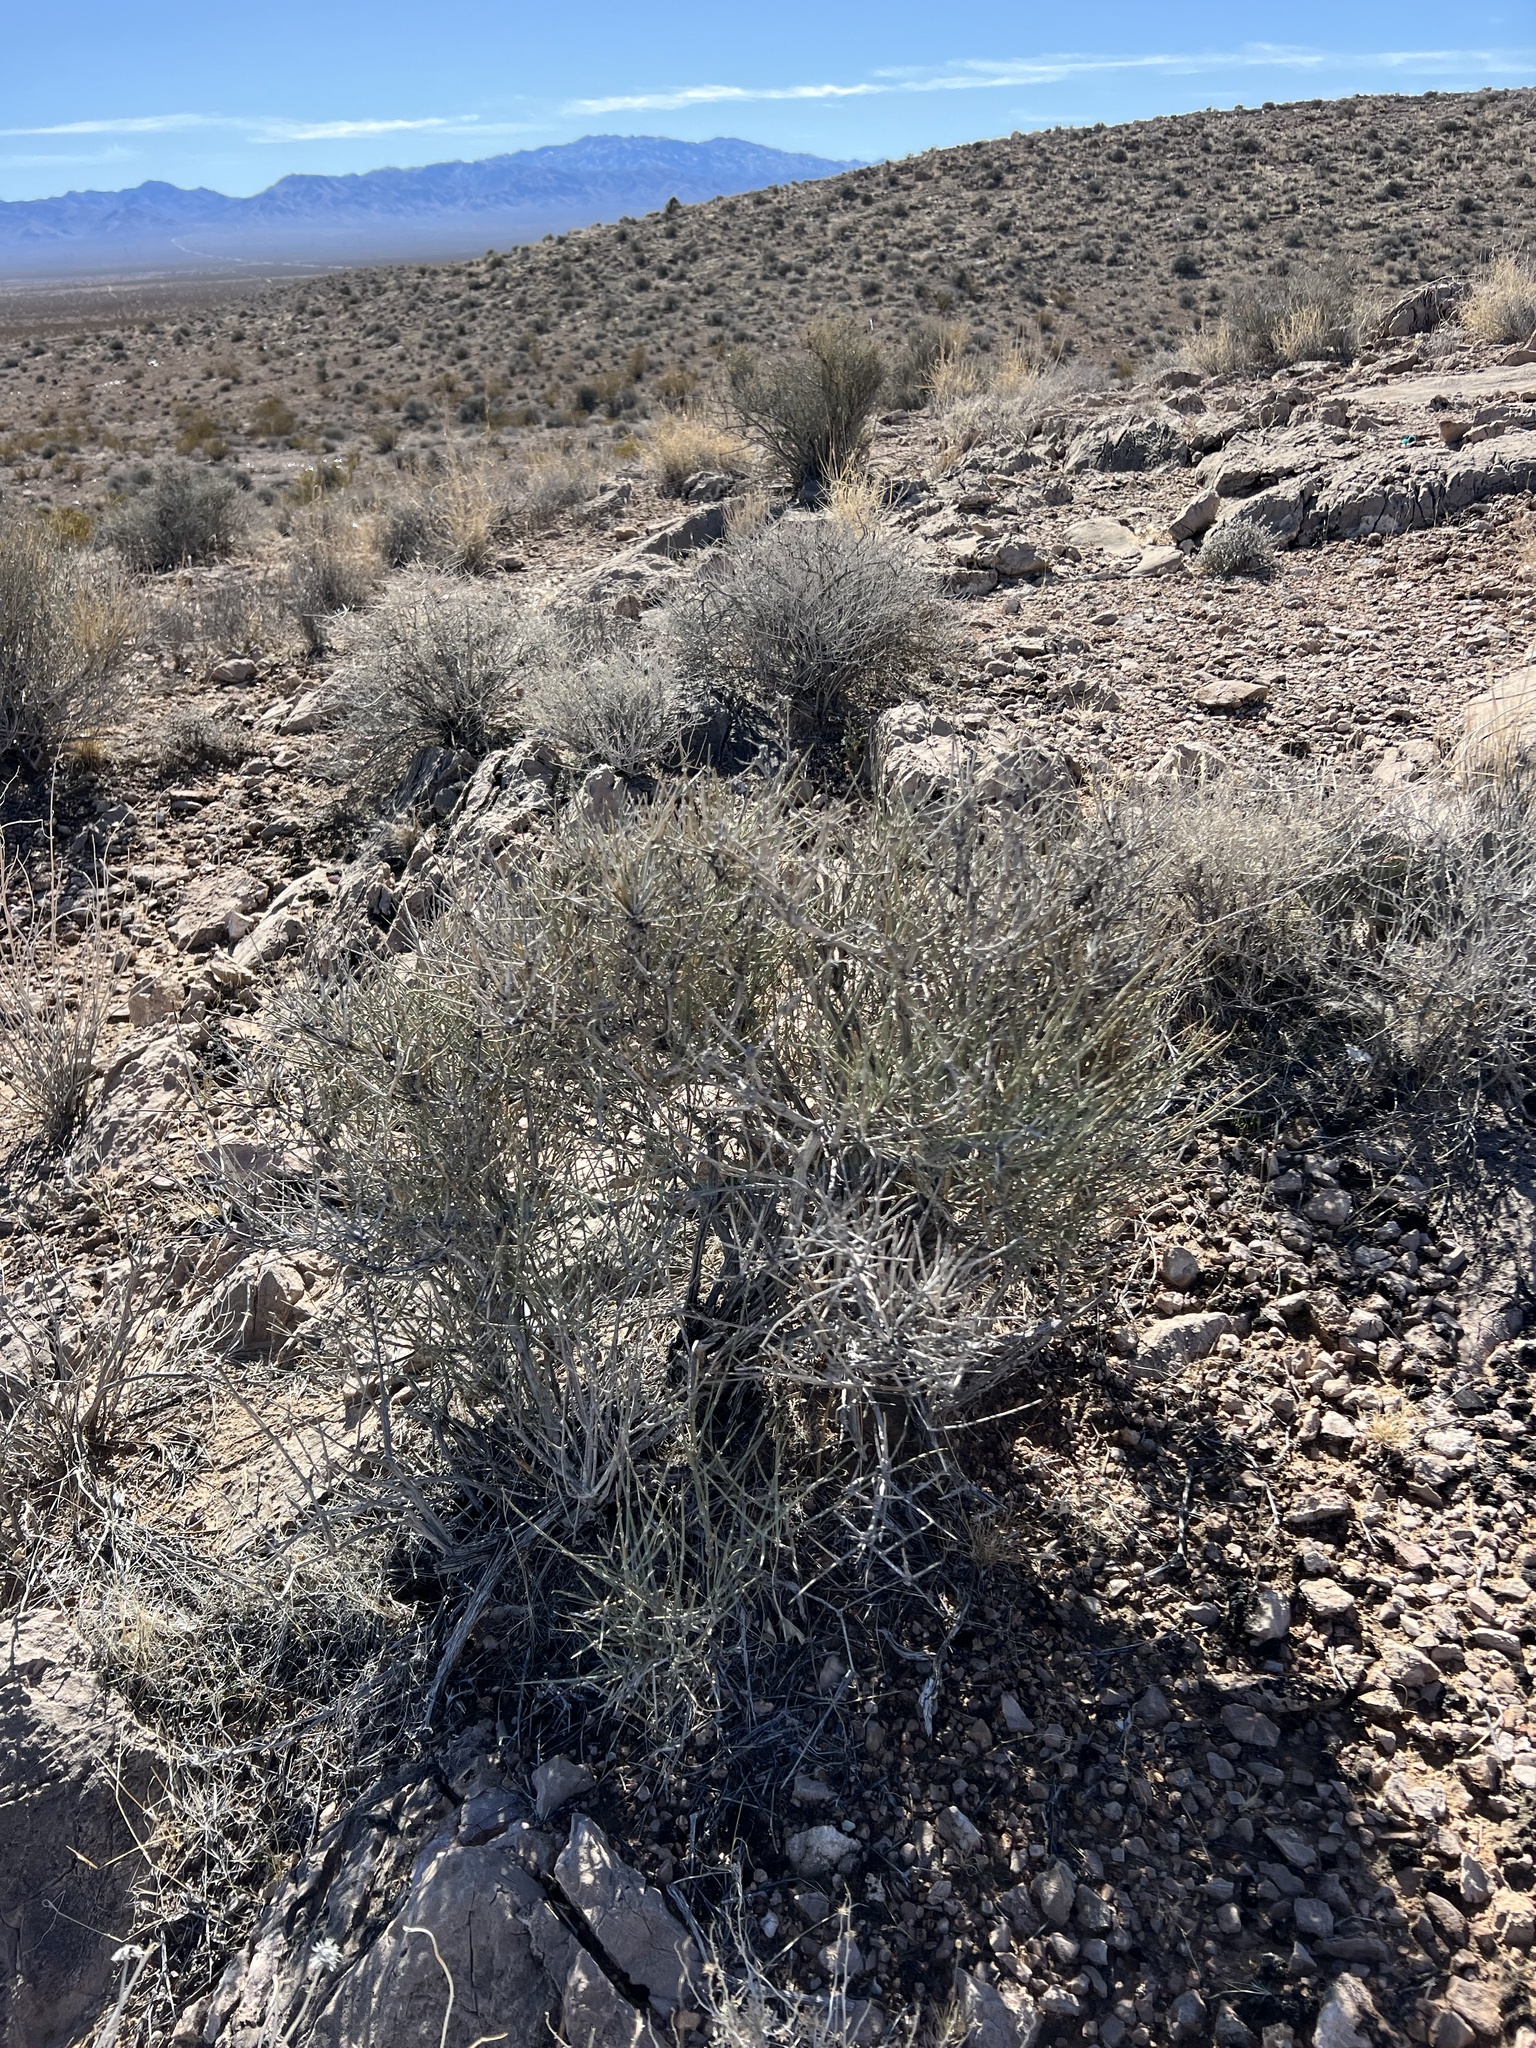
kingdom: Plantae
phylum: Tracheophyta
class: Gnetopsida
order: Ephedrales
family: Ephedraceae
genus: Ephedra
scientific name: Ephedra nevadensis
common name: Gray ephedra
